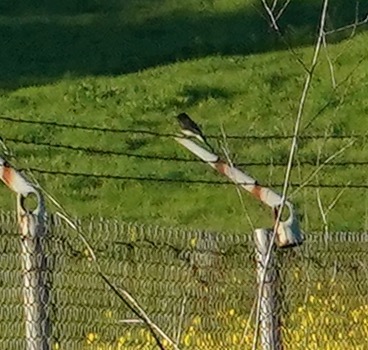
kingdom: Animalia
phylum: Chordata
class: Aves
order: Passeriformes
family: Tyrannidae
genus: Sayornis
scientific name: Sayornis nigricans
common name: Black phoebe
